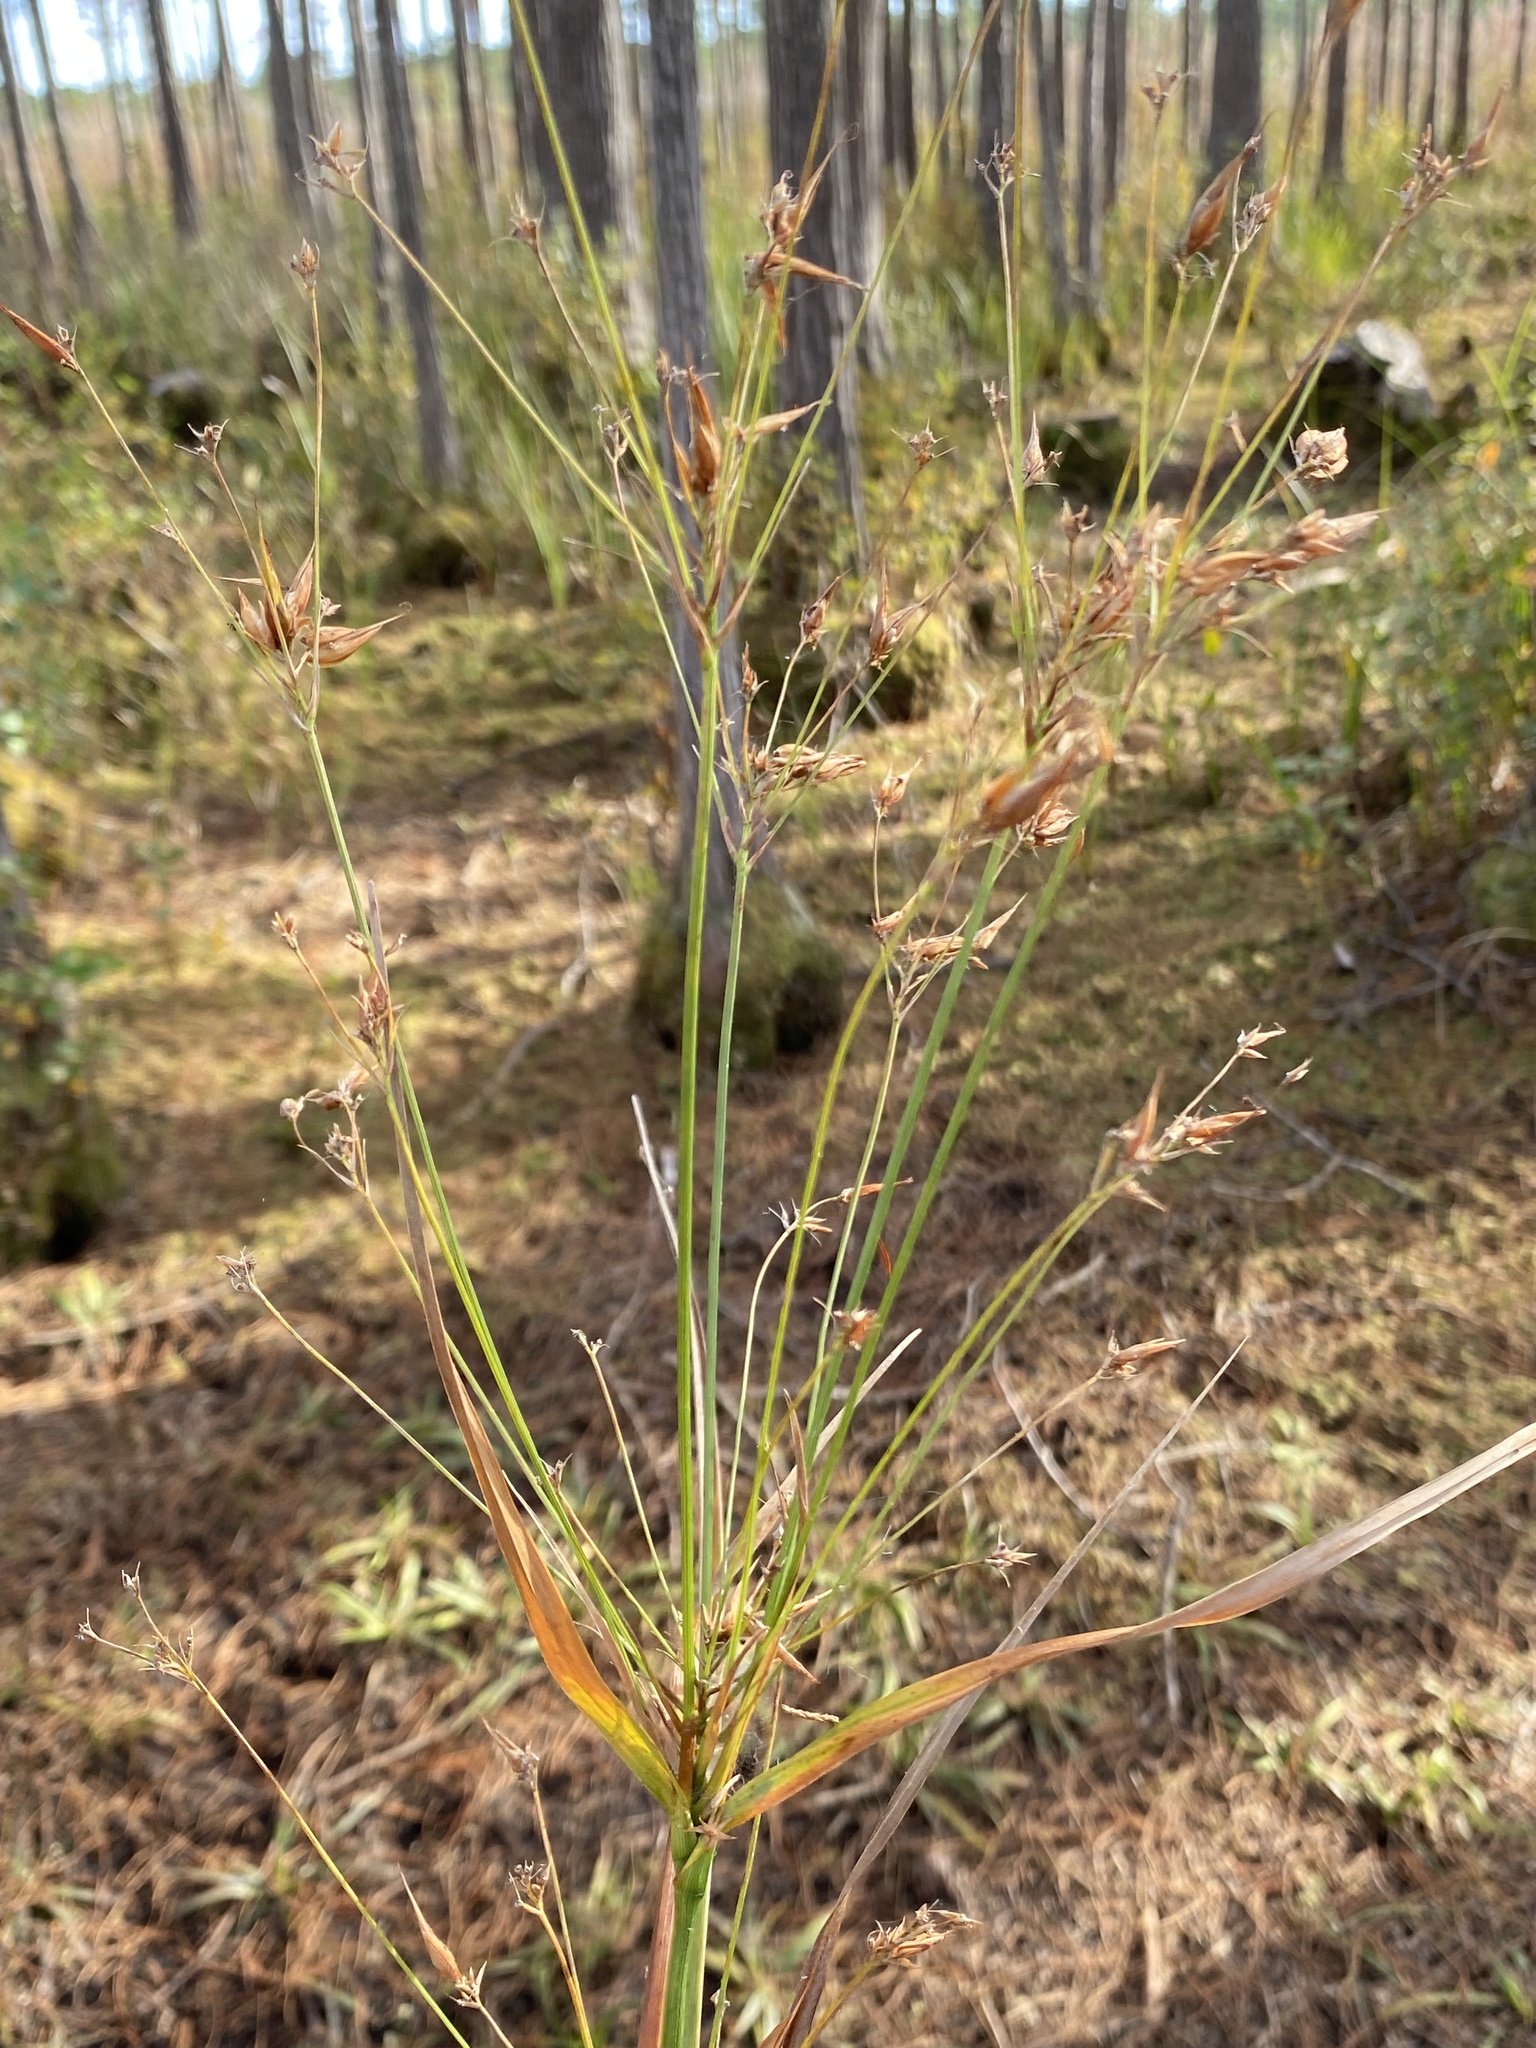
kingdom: Plantae
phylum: Tracheophyta
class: Liliopsida
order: Poales
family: Cyperaceae
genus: Rhynchospora
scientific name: Rhynchospora corniculata
